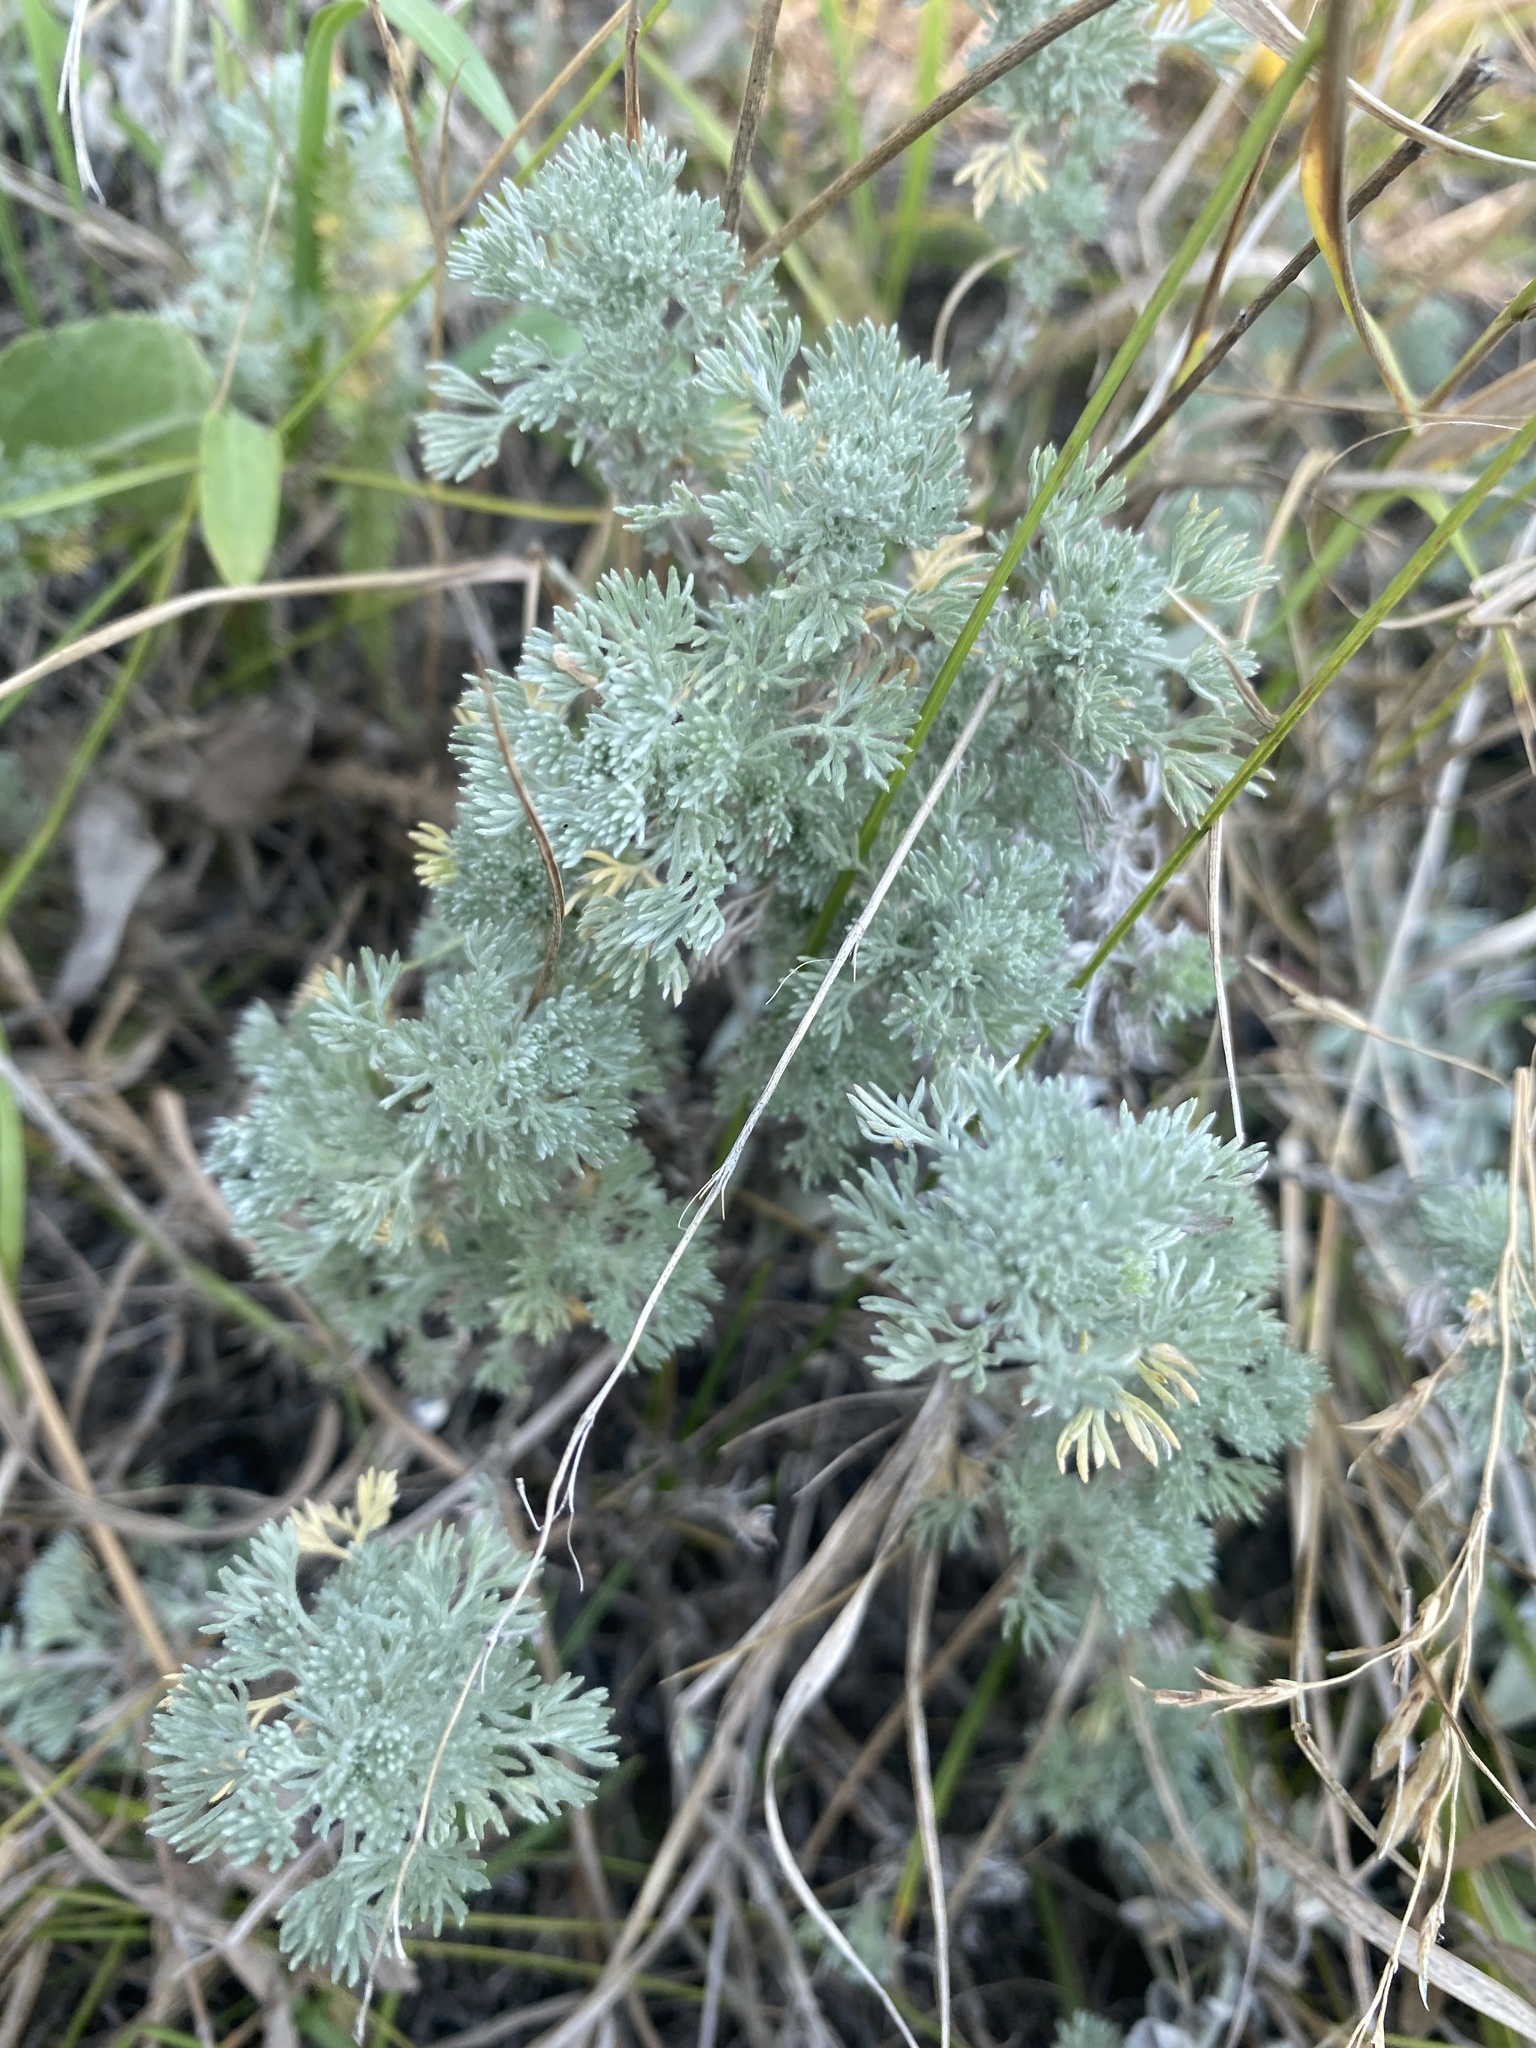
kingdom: Plantae
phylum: Tracheophyta
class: Magnoliopsida
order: Asterales
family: Asteraceae
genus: Artemisia
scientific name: Artemisia frigida
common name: Prairie sagewort
